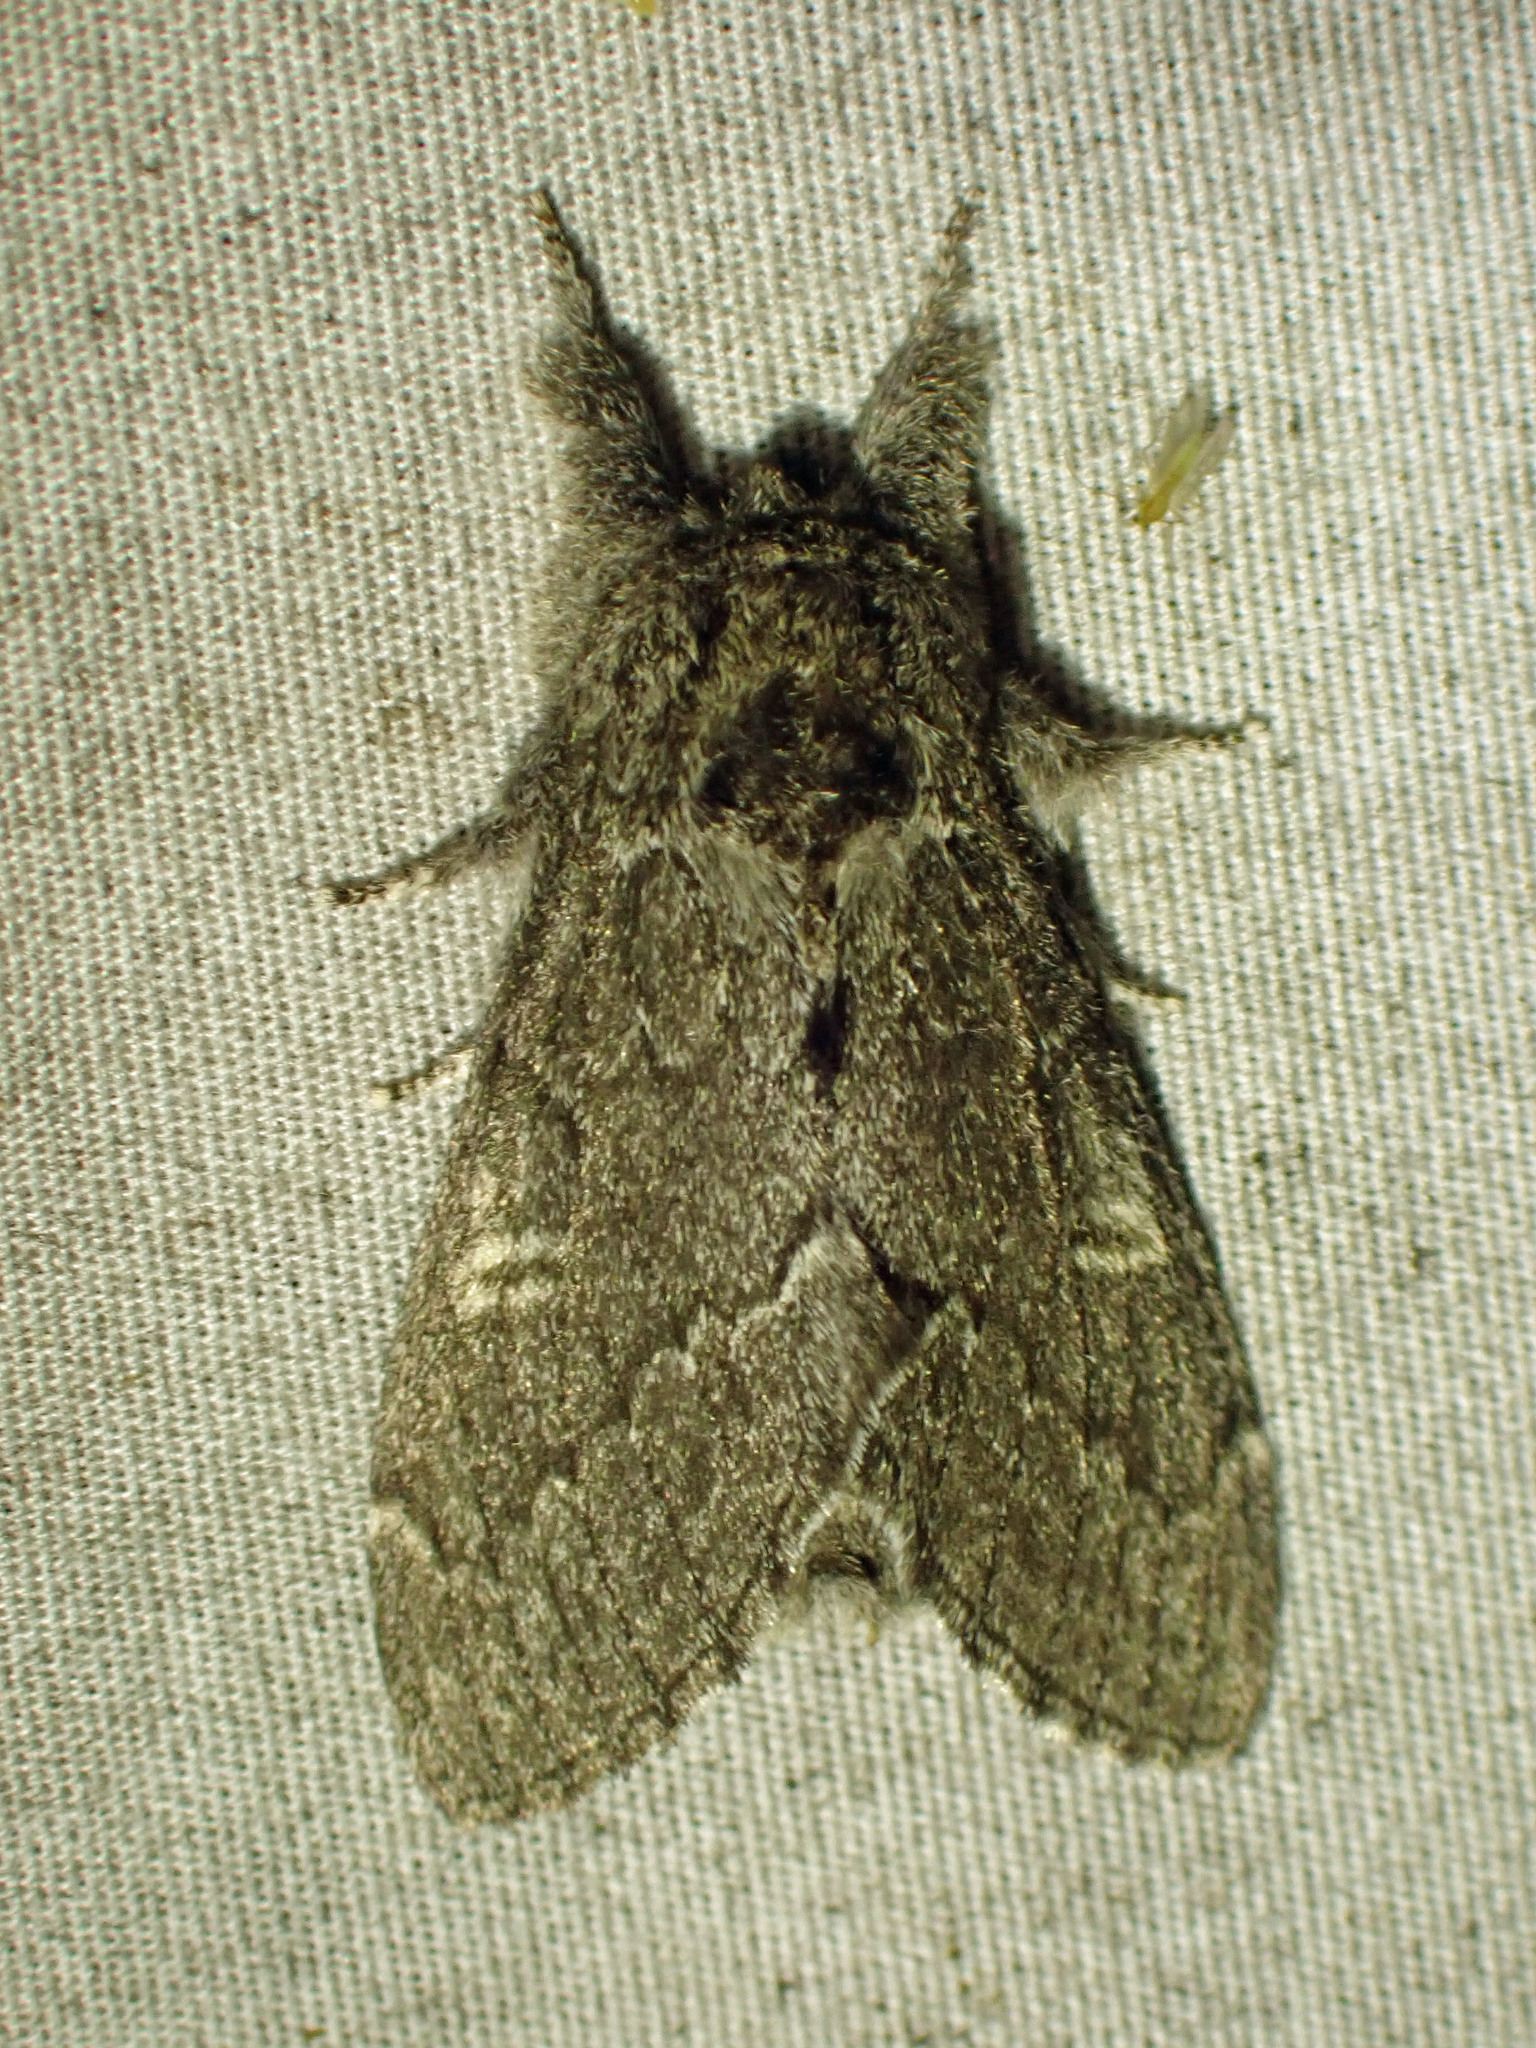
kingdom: Animalia
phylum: Arthropoda
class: Insecta
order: Lepidoptera
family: Notodontidae
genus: Notodonta
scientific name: Notodonta torva
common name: Large dark prominent
